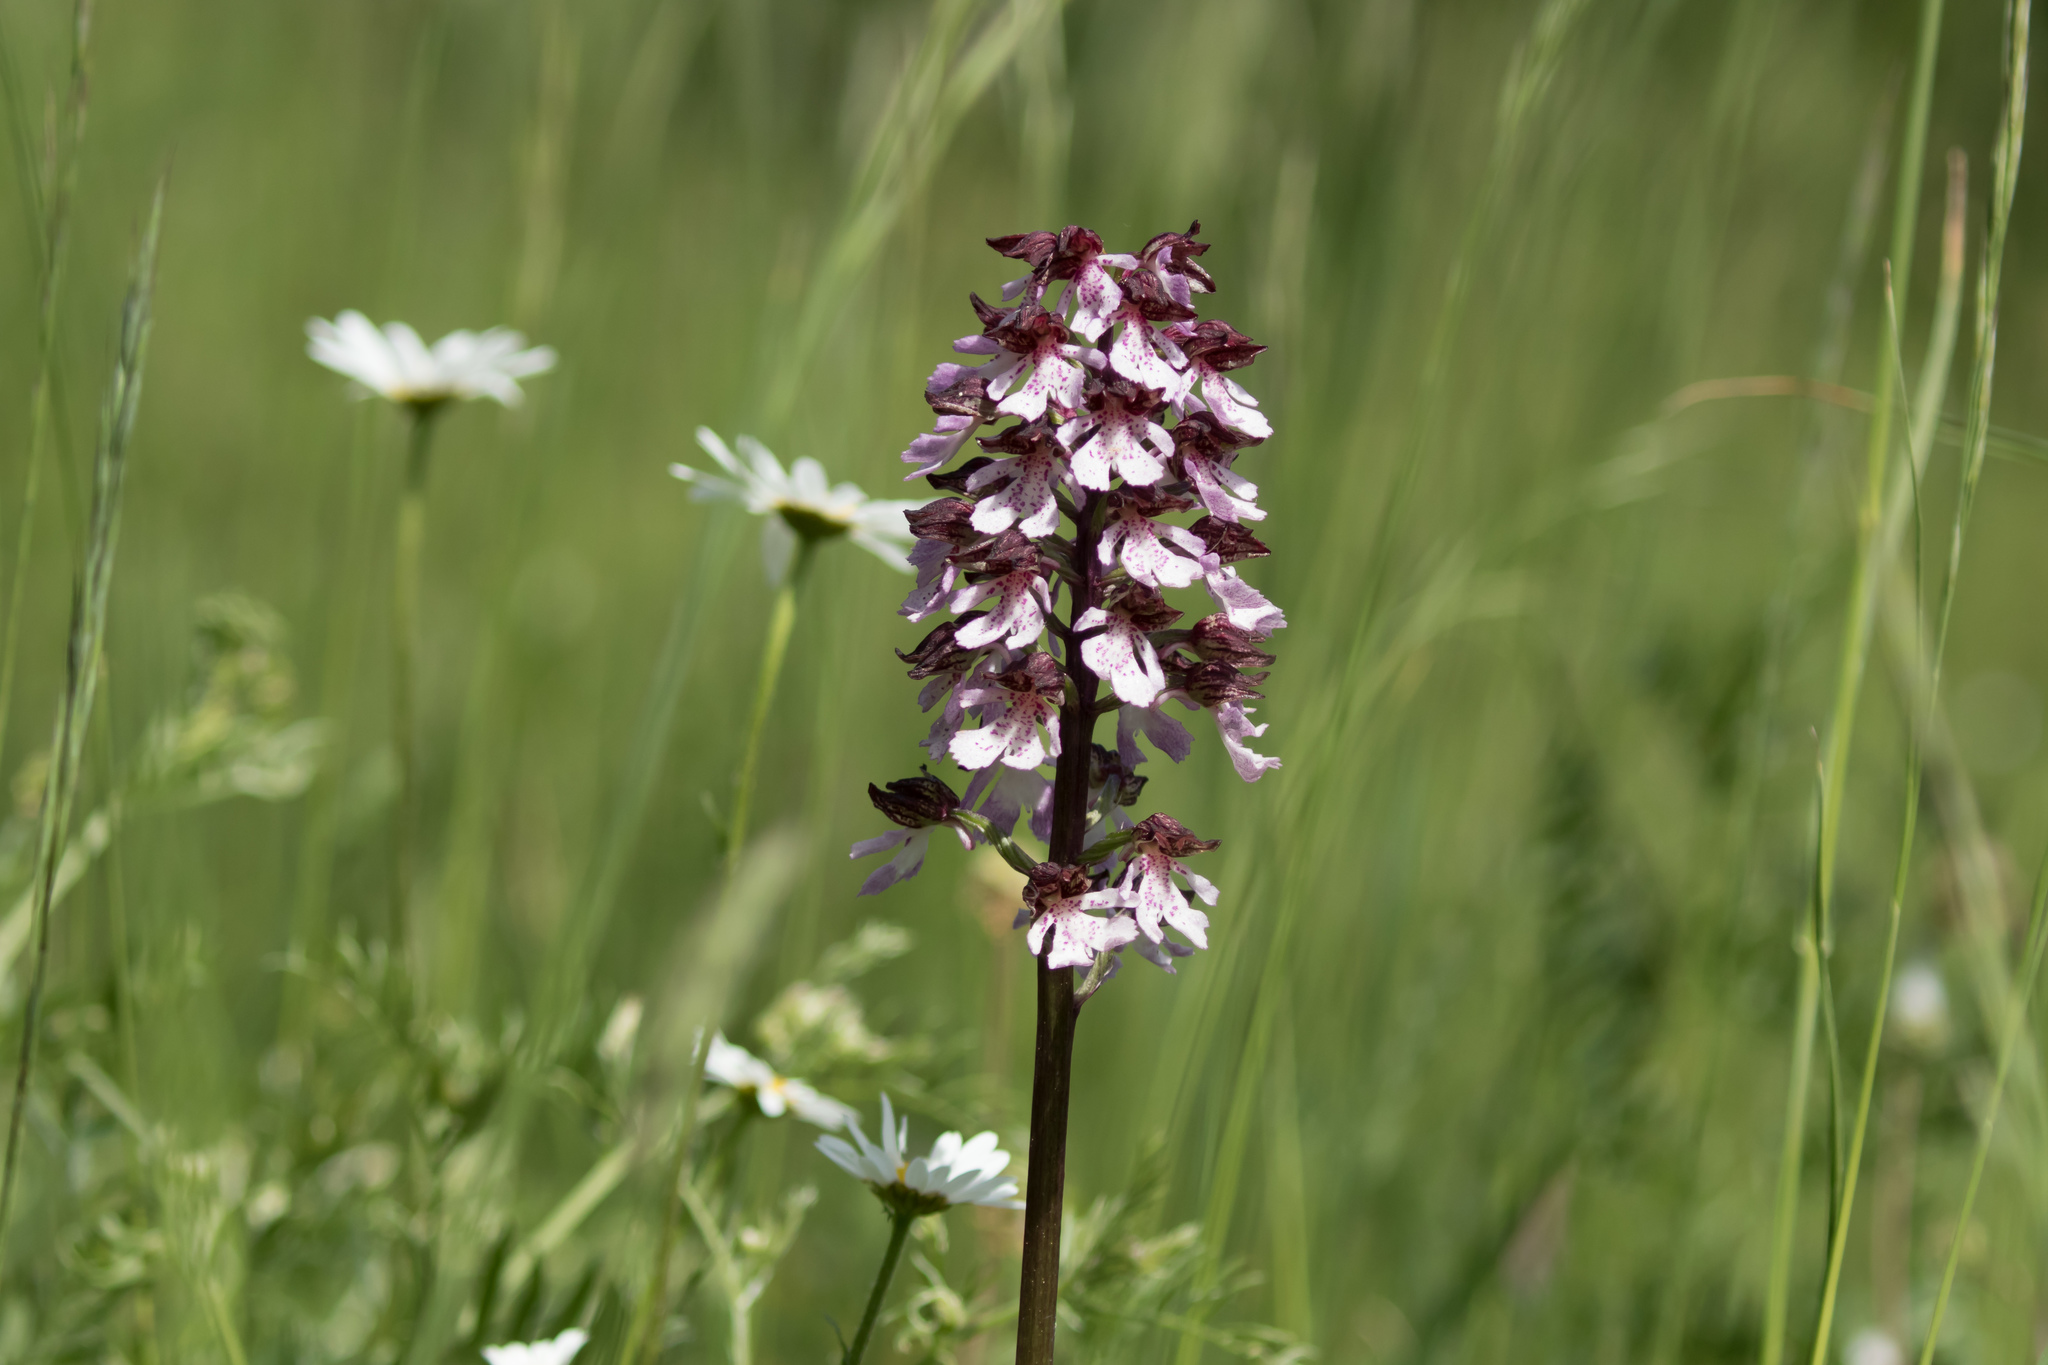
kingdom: Plantae
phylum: Tracheophyta
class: Liliopsida
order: Asparagales
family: Orchidaceae
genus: Orchis
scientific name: Orchis purpurea
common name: Lady orchid
